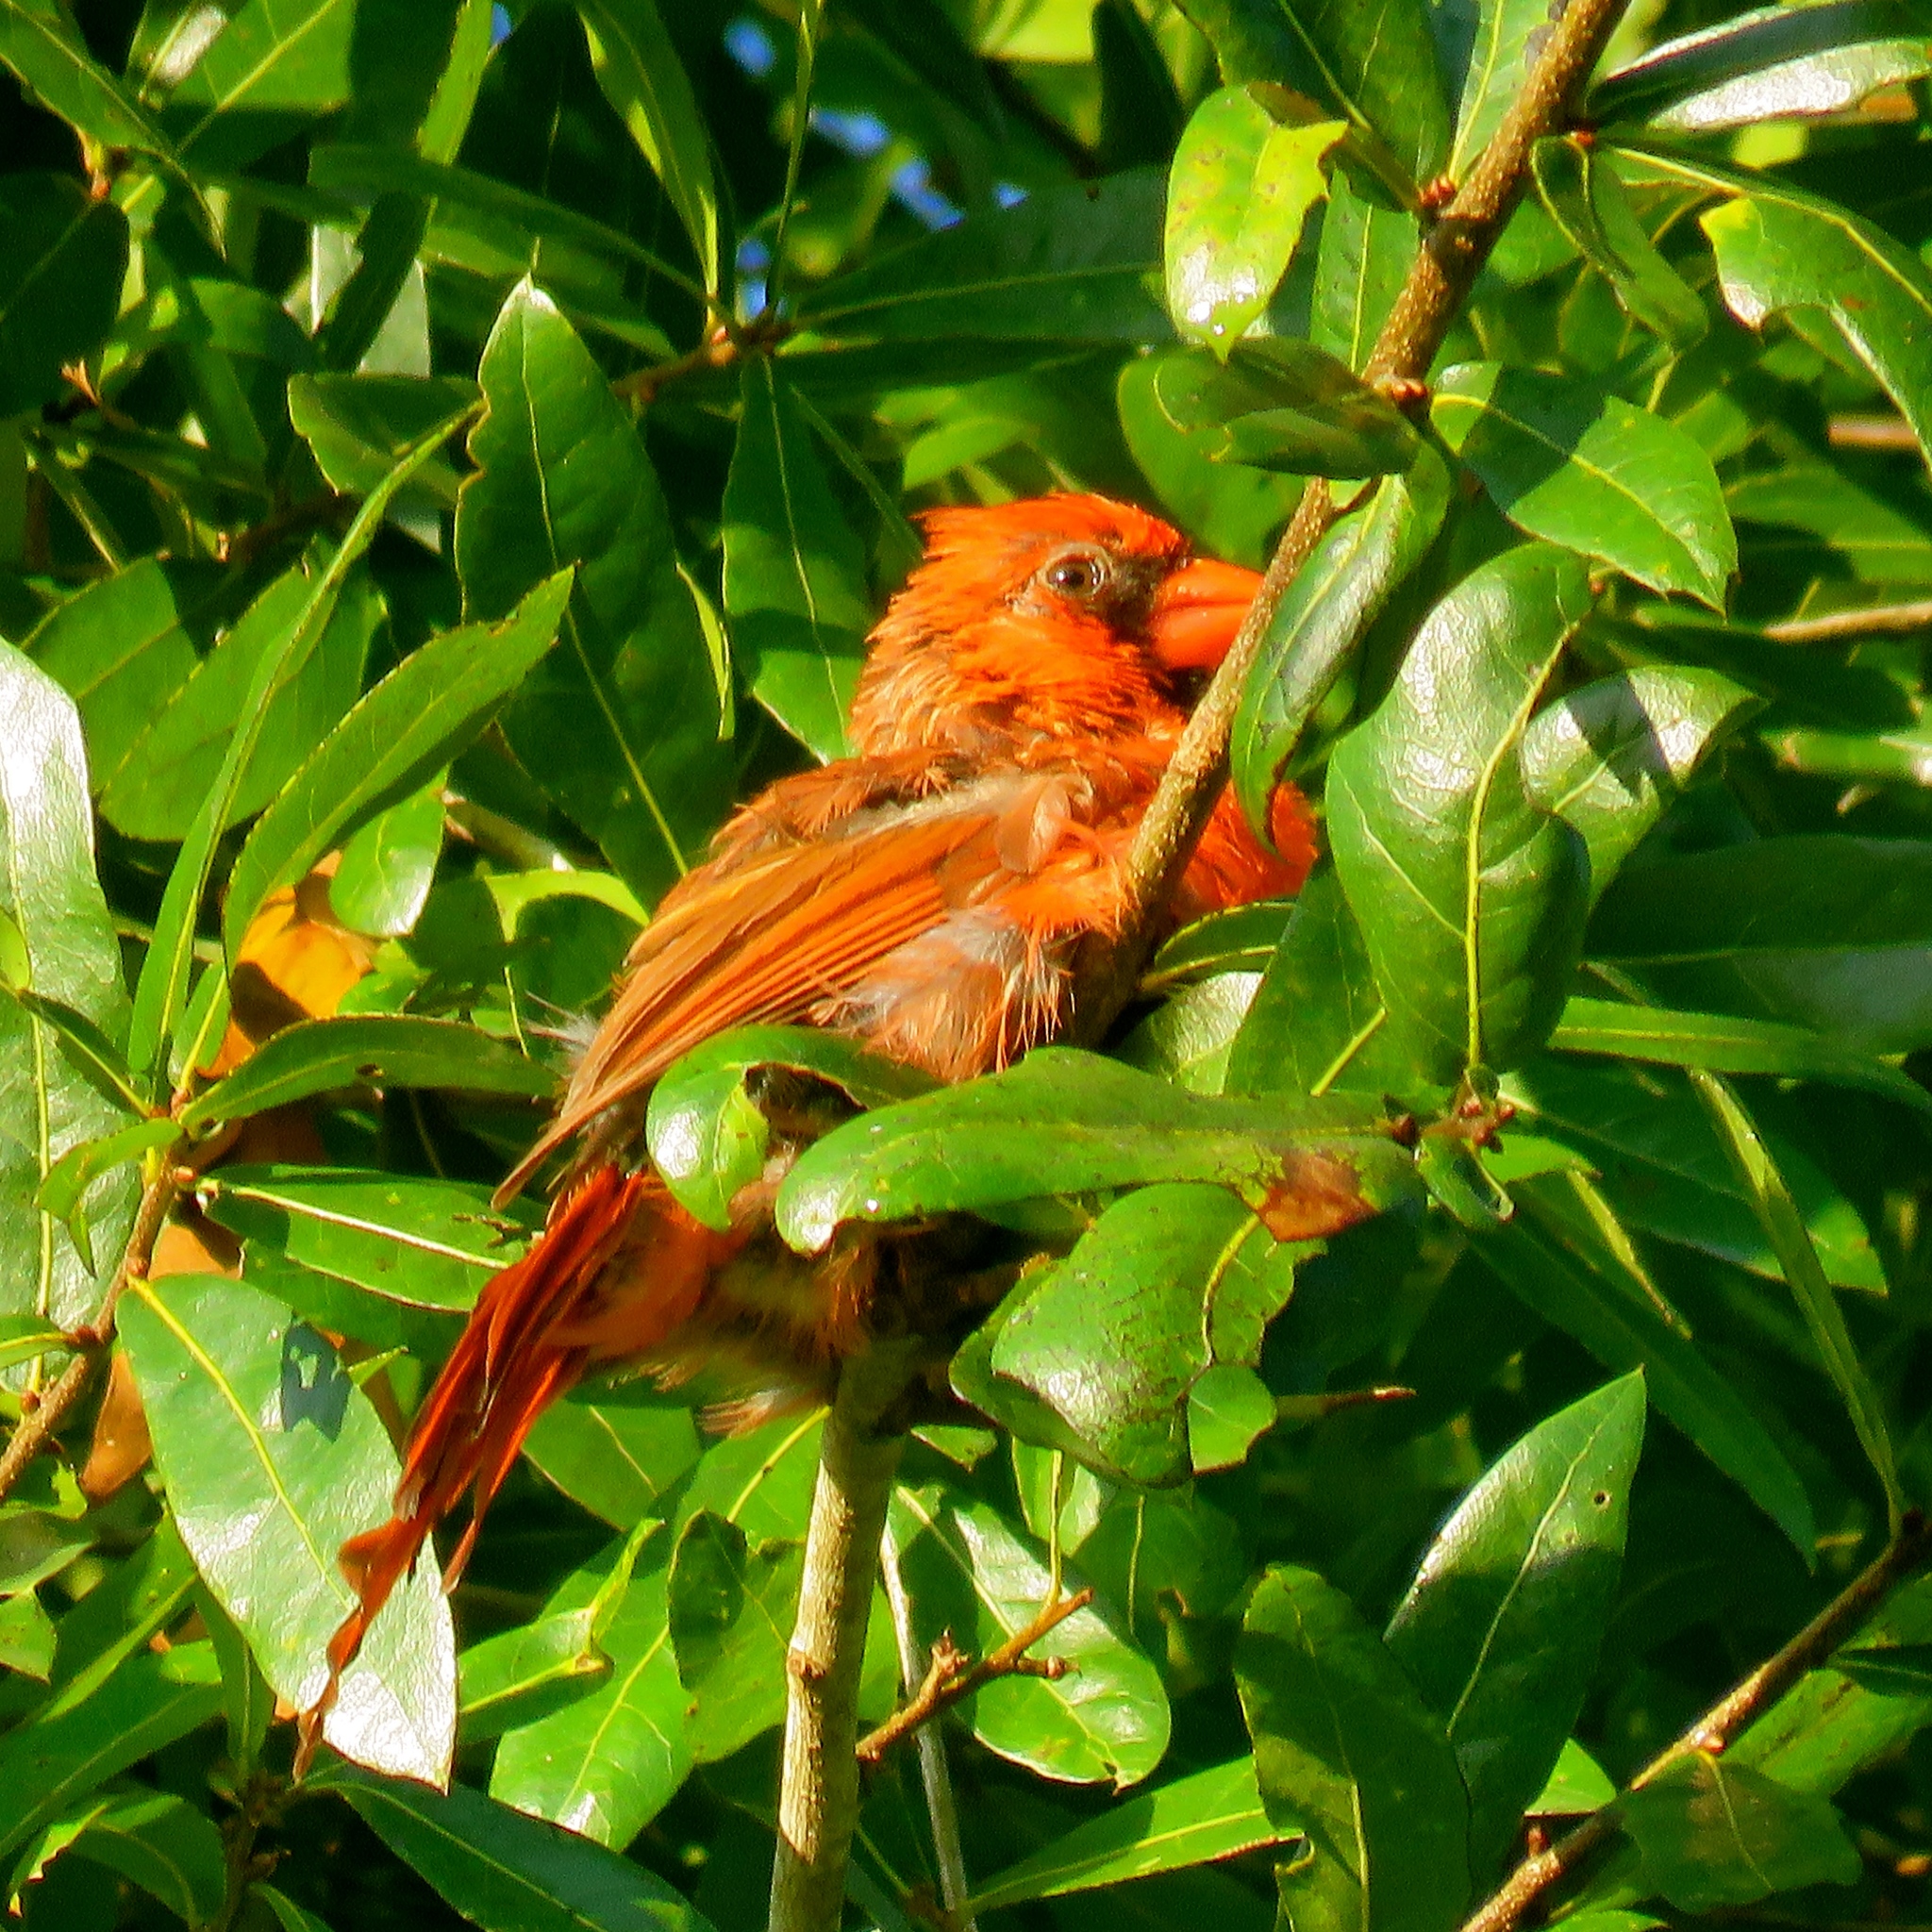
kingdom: Animalia
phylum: Chordata
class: Aves
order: Passeriformes
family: Cardinalidae
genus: Cardinalis
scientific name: Cardinalis cardinalis
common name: Northern cardinal
